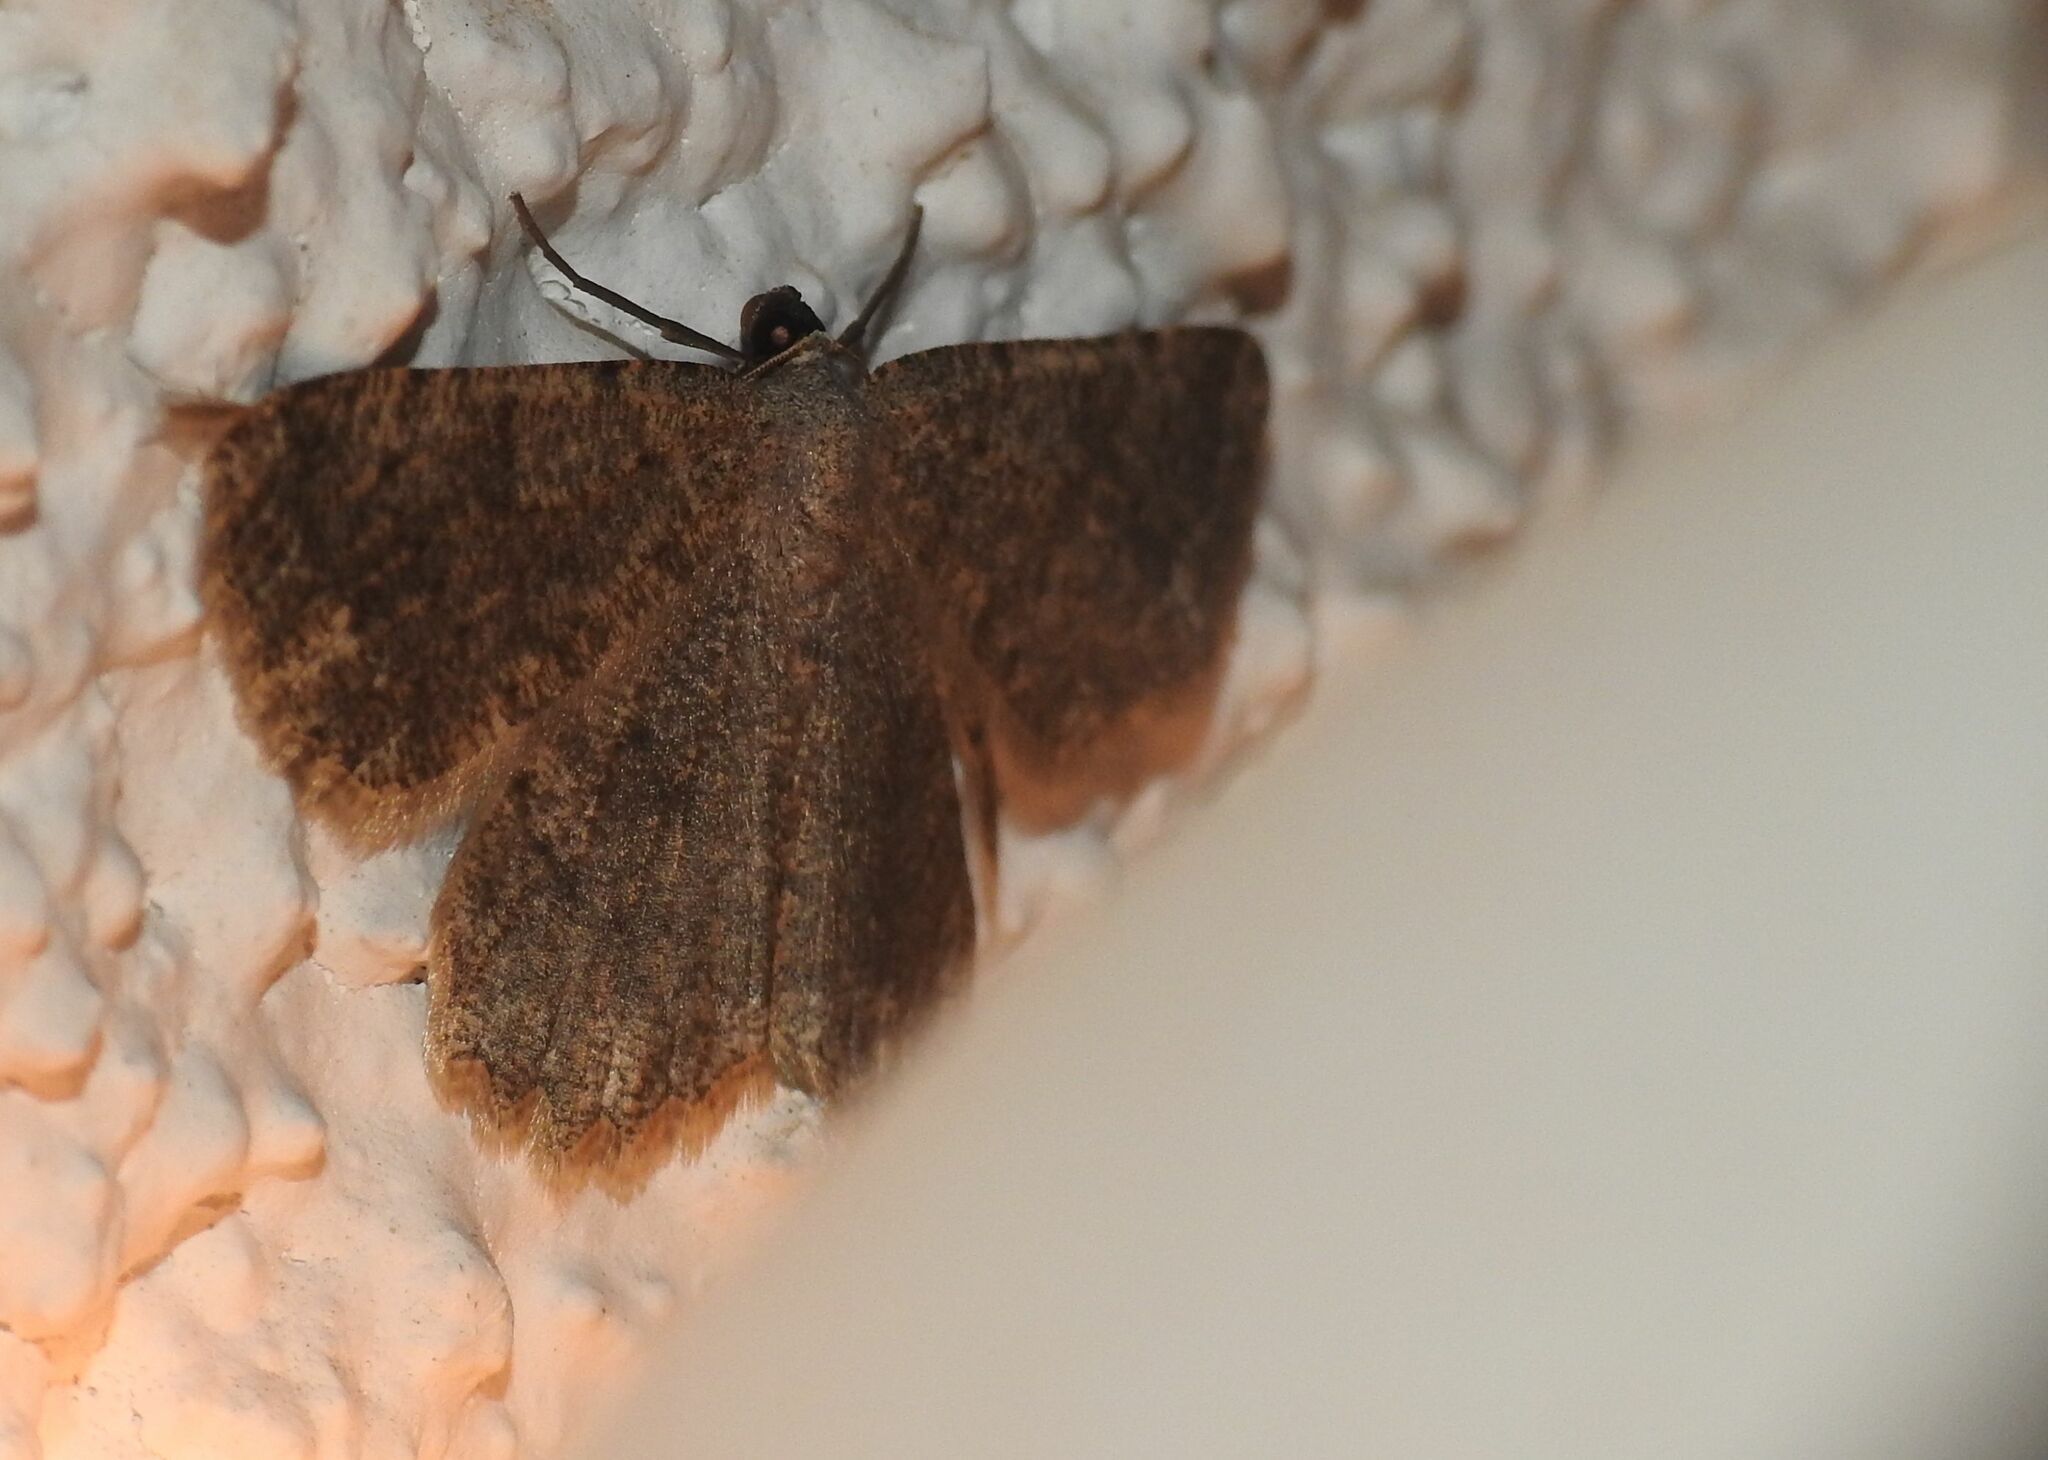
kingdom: Animalia
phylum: Arthropoda
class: Insecta
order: Lepidoptera
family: Geometridae
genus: Gnophos
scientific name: Gnophos sartata
